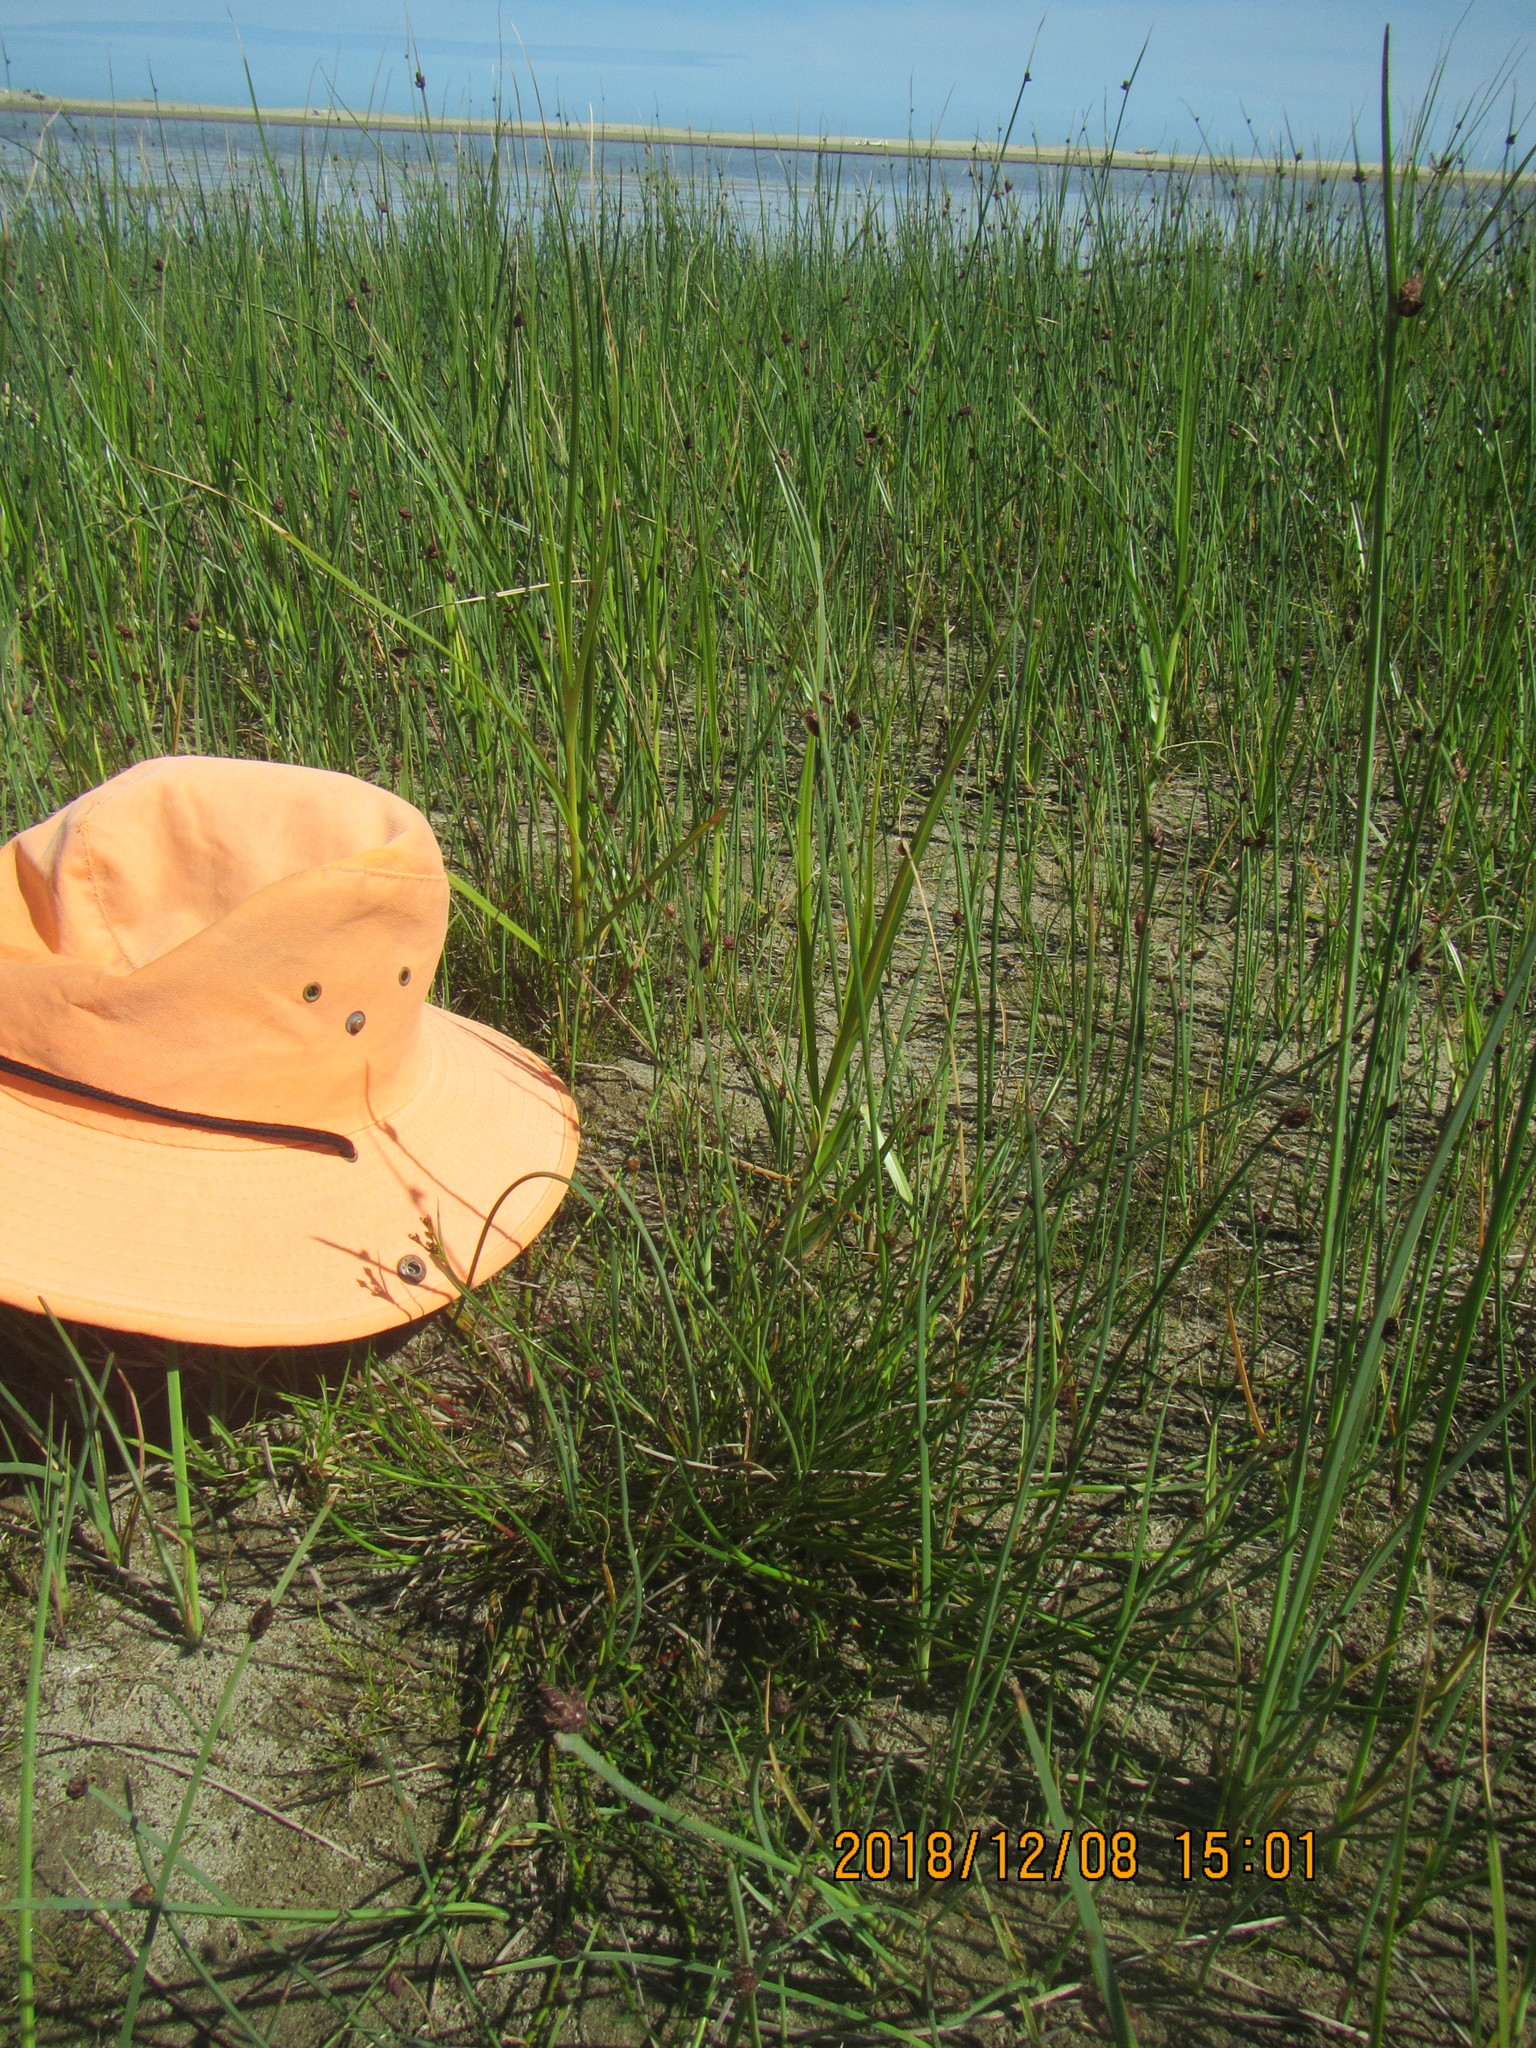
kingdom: Animalia
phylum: Arthropoda
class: Insecta
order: Coleoptera
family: Coccinellidae
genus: Coccinella
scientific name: Coccinella undecimpunctata
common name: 11-spot ladybird
